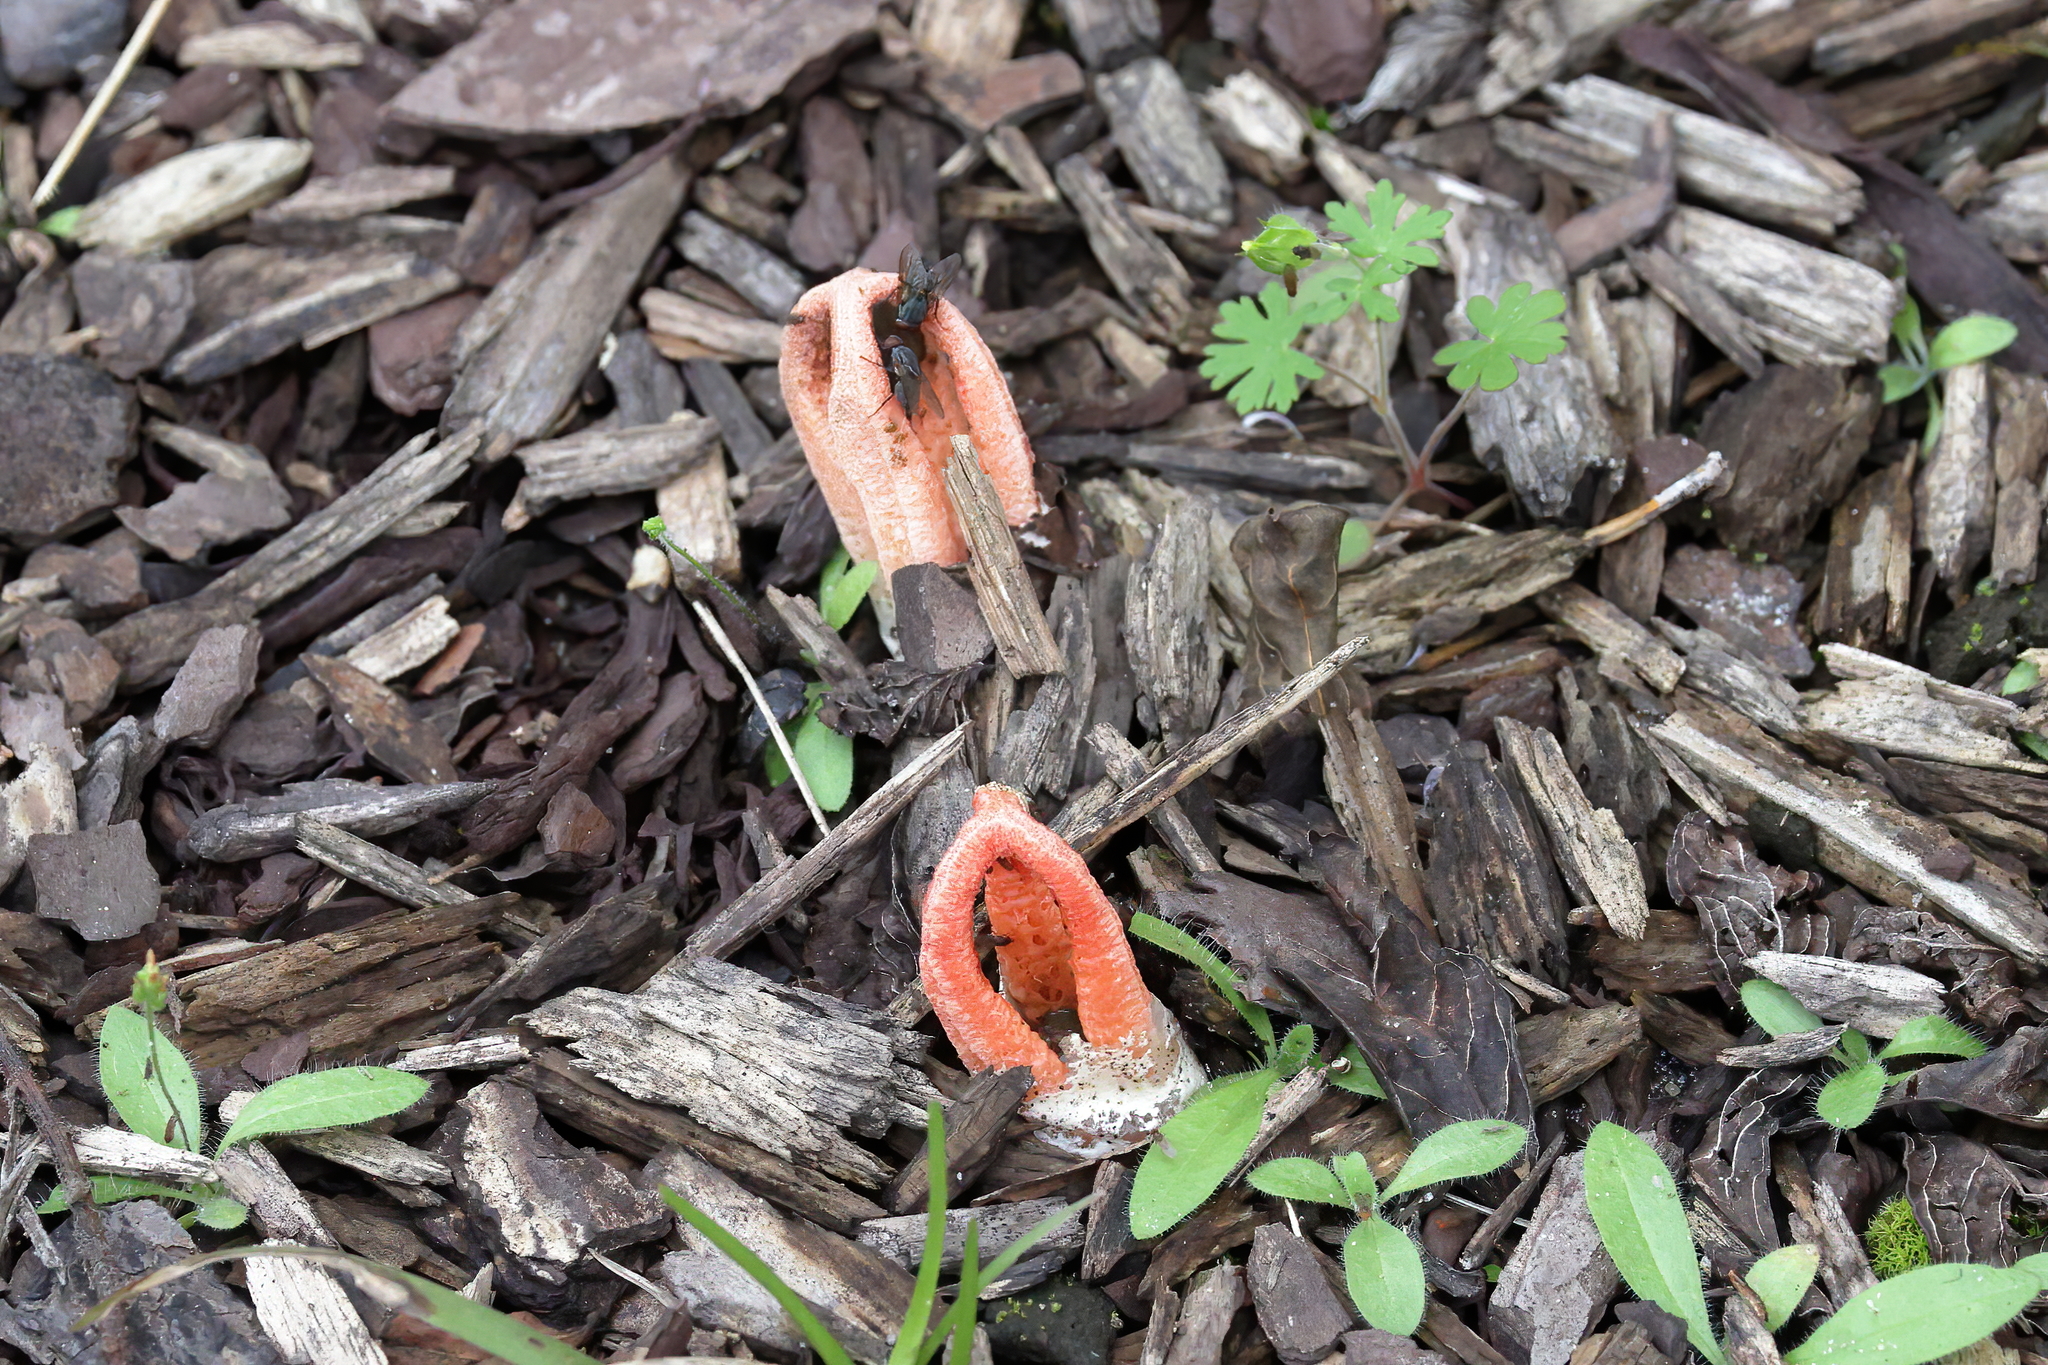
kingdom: Fungi
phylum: Basidiomycota
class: Agaricomycetes
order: Phallales
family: Phallaceae
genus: Clathrus
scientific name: Clathrus columnatus
